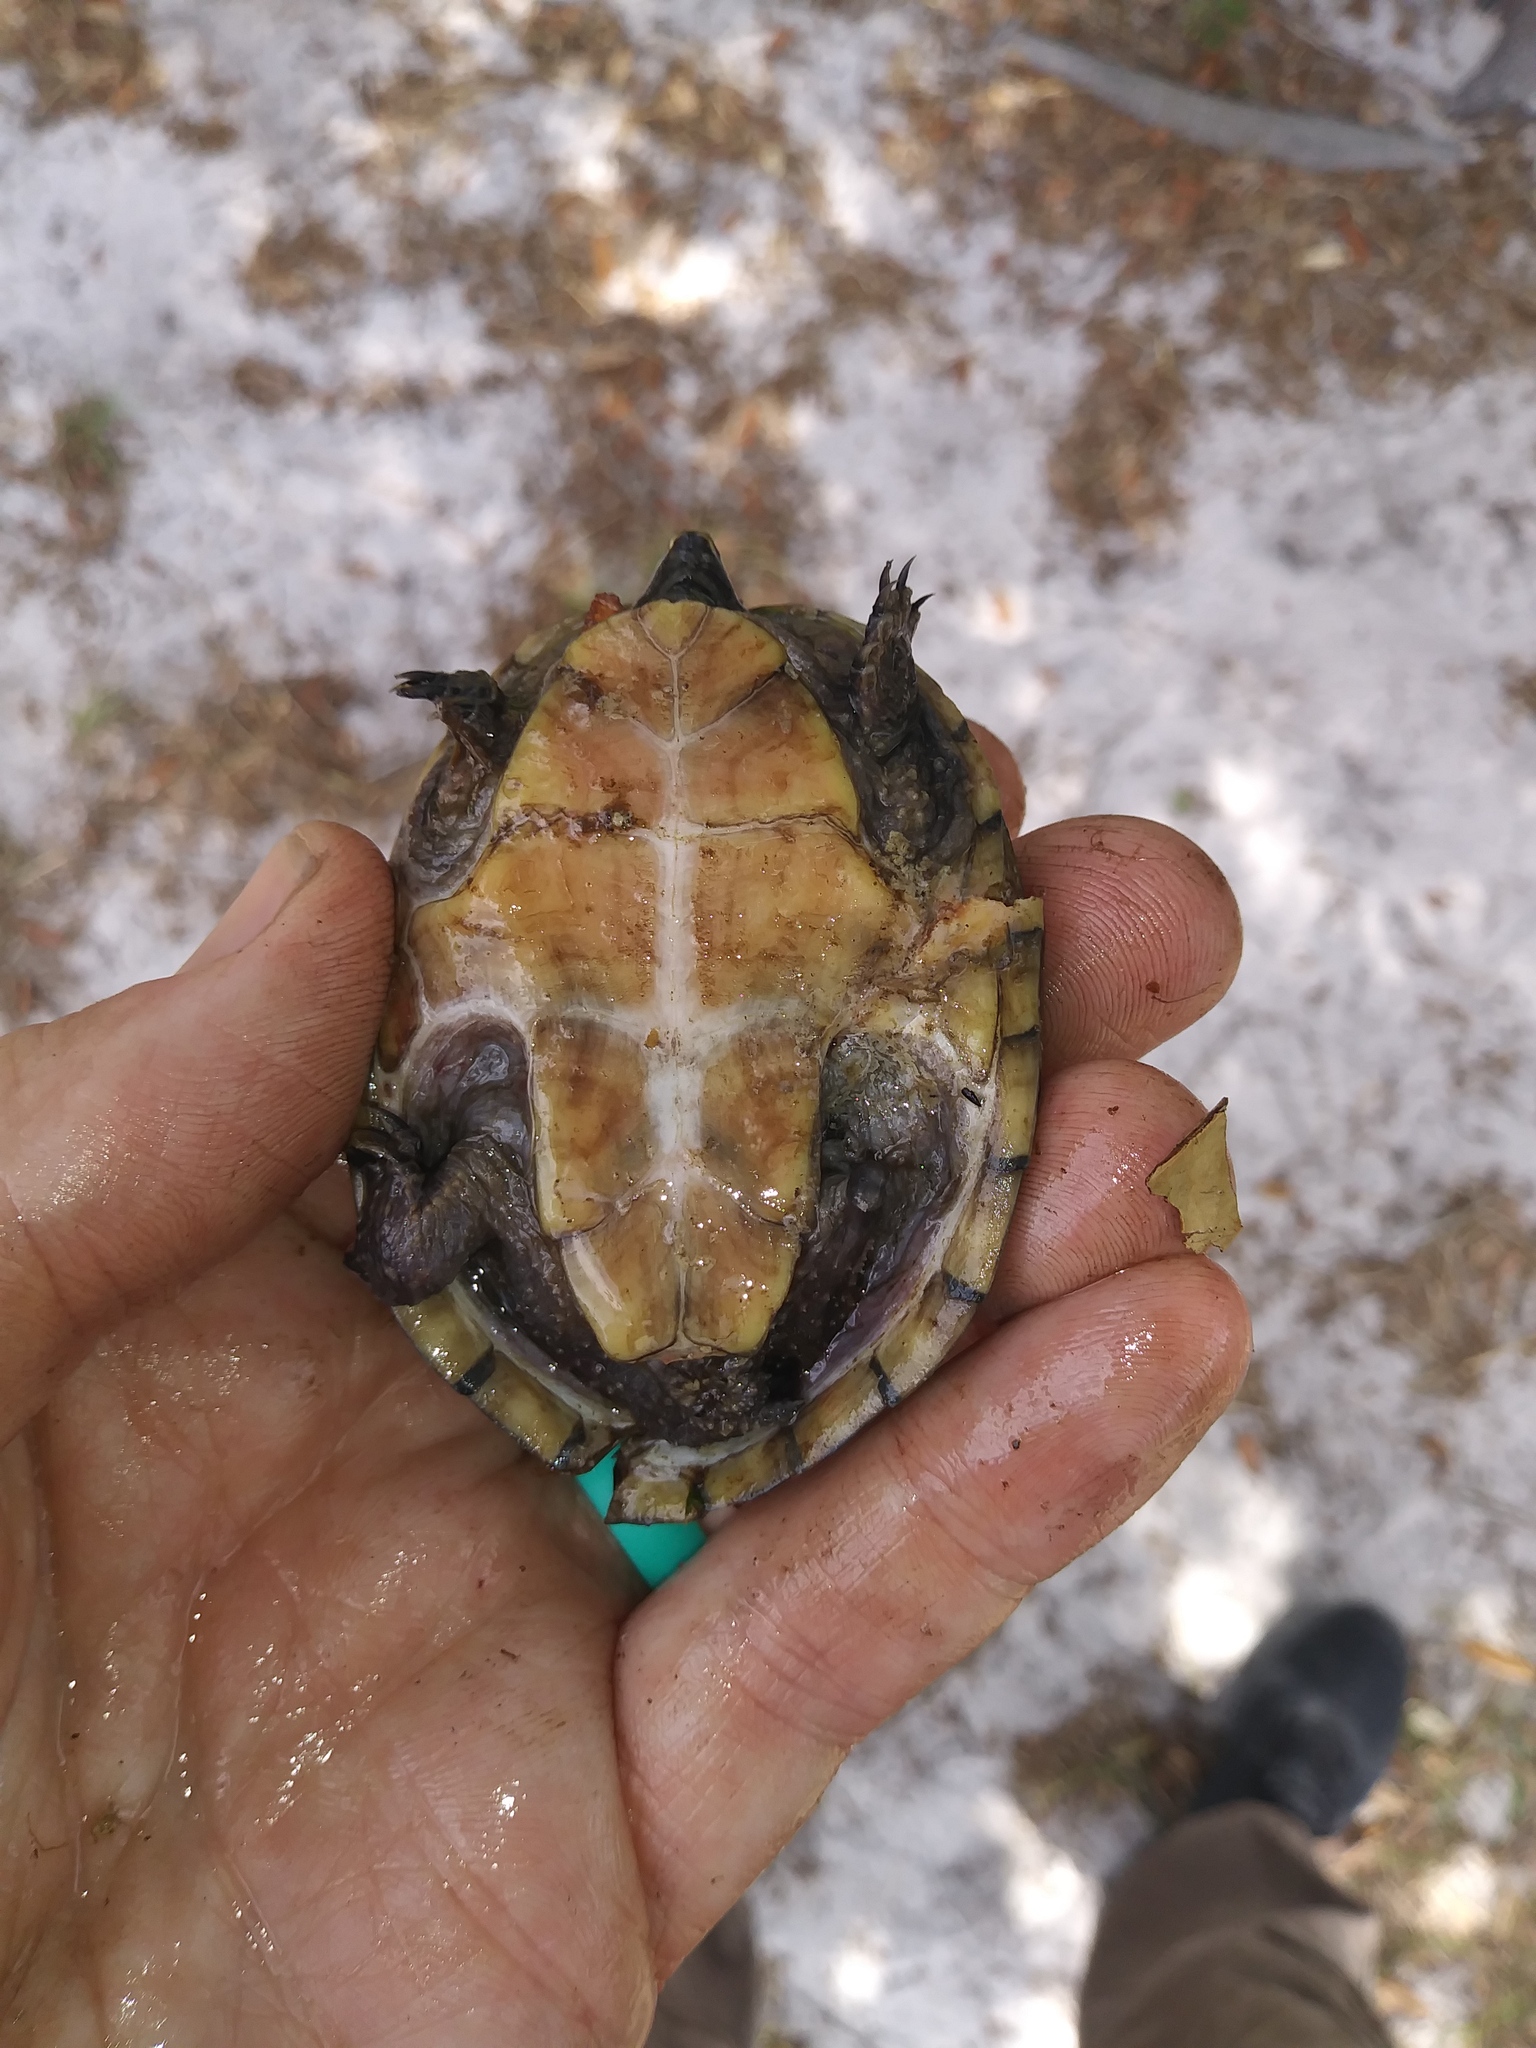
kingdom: Animalia
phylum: Chordata
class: Testudines
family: Kinosternidae
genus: Sternotherus
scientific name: Sternotherus odoratus
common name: Common musk turtle
